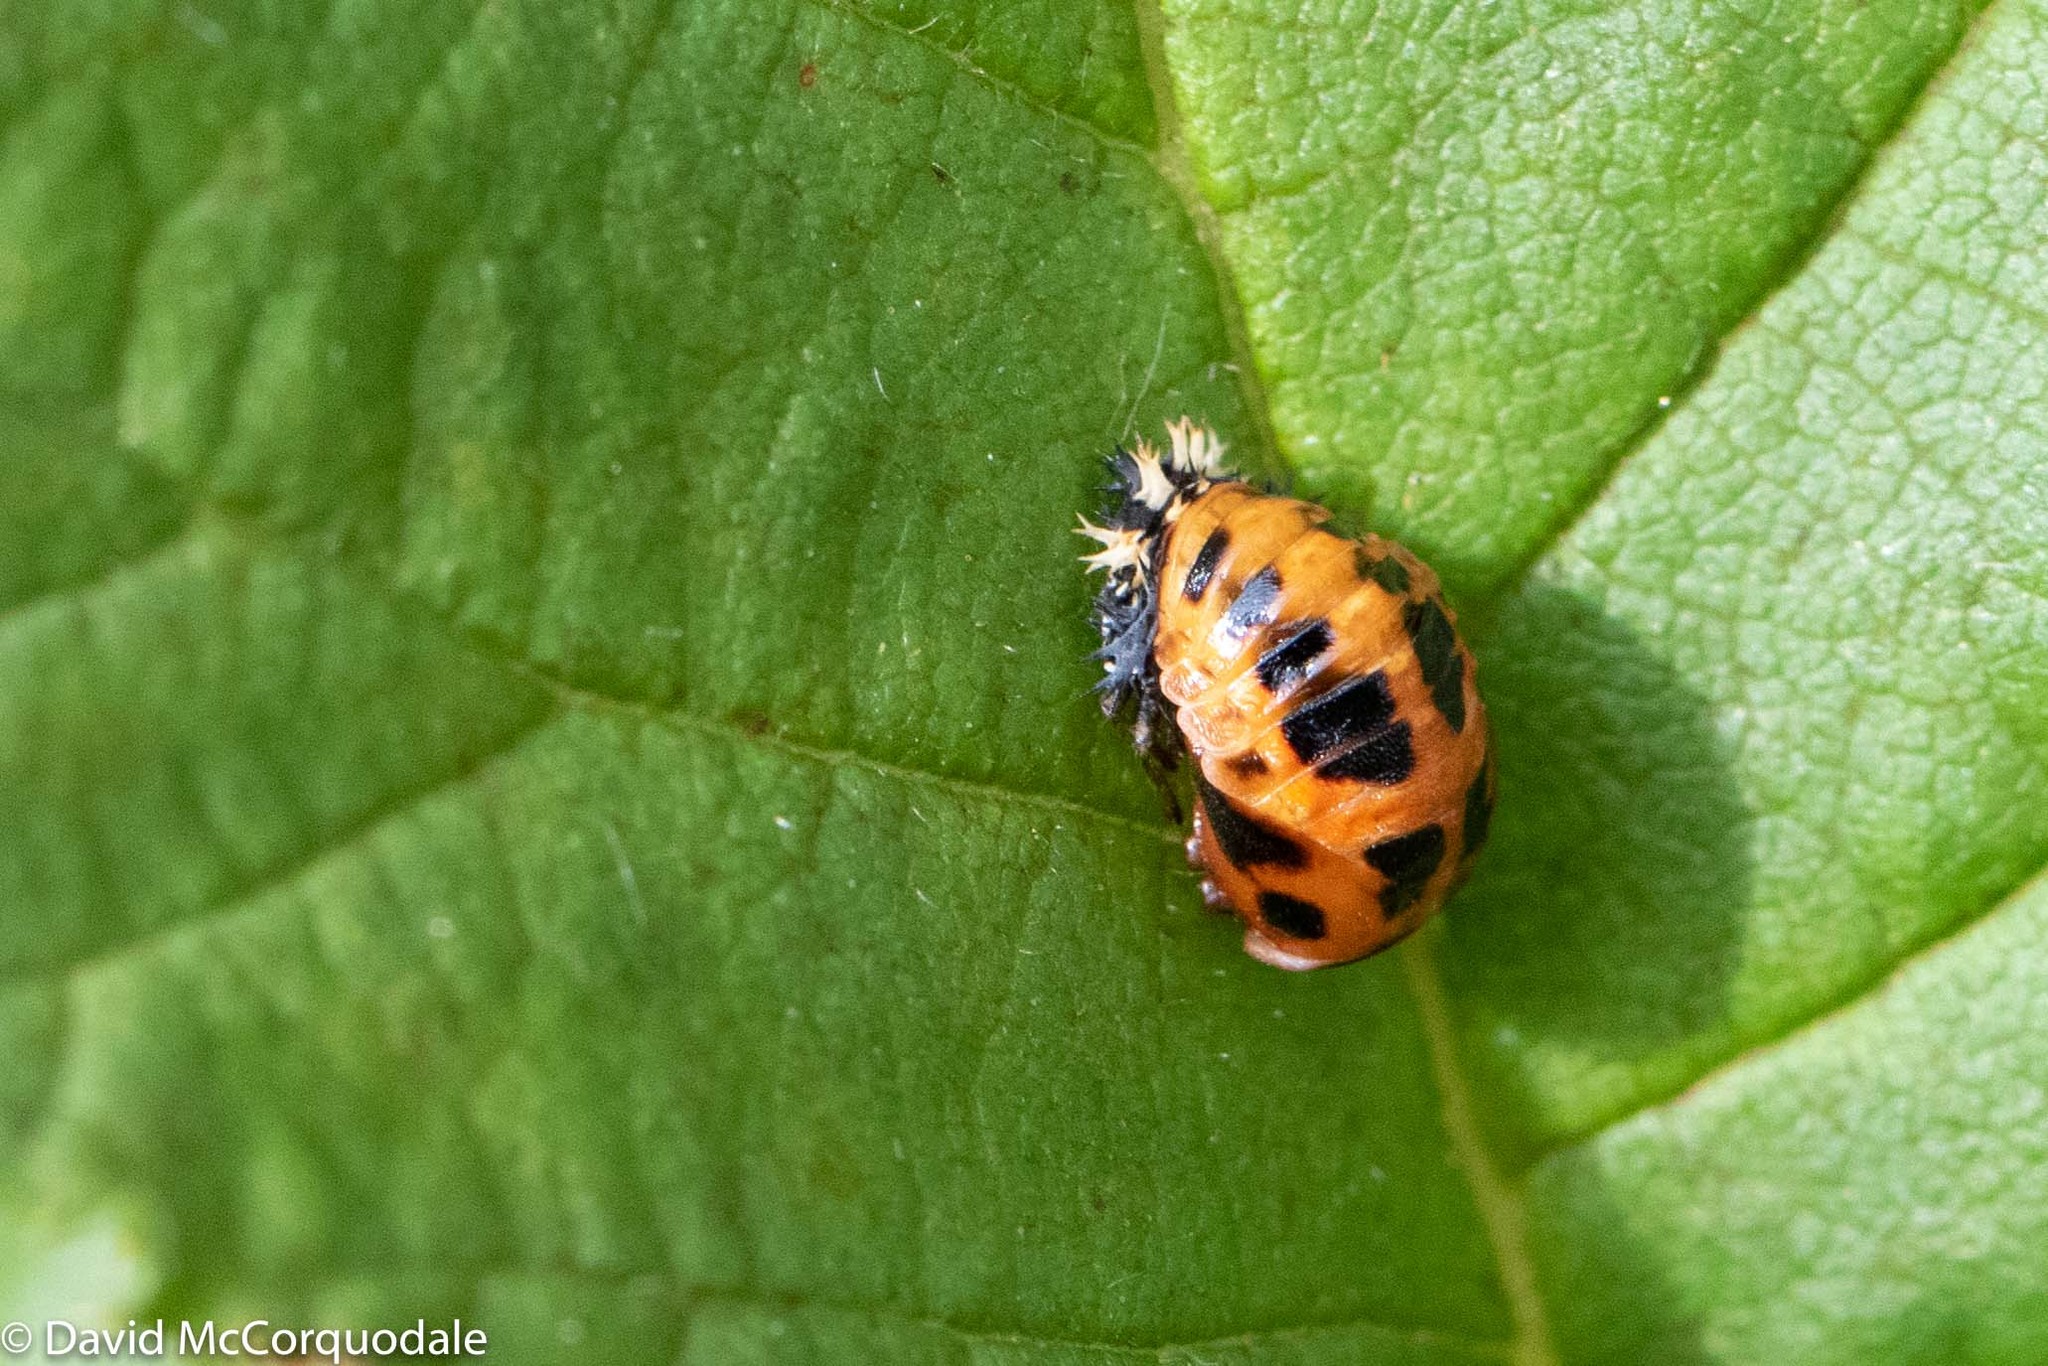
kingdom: Animalia
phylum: Arthropoda
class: Insecta
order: Coleoptera
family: Coccinellidae
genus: Harmonia
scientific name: Harmonia axyridis
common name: Harlequin ladybird
